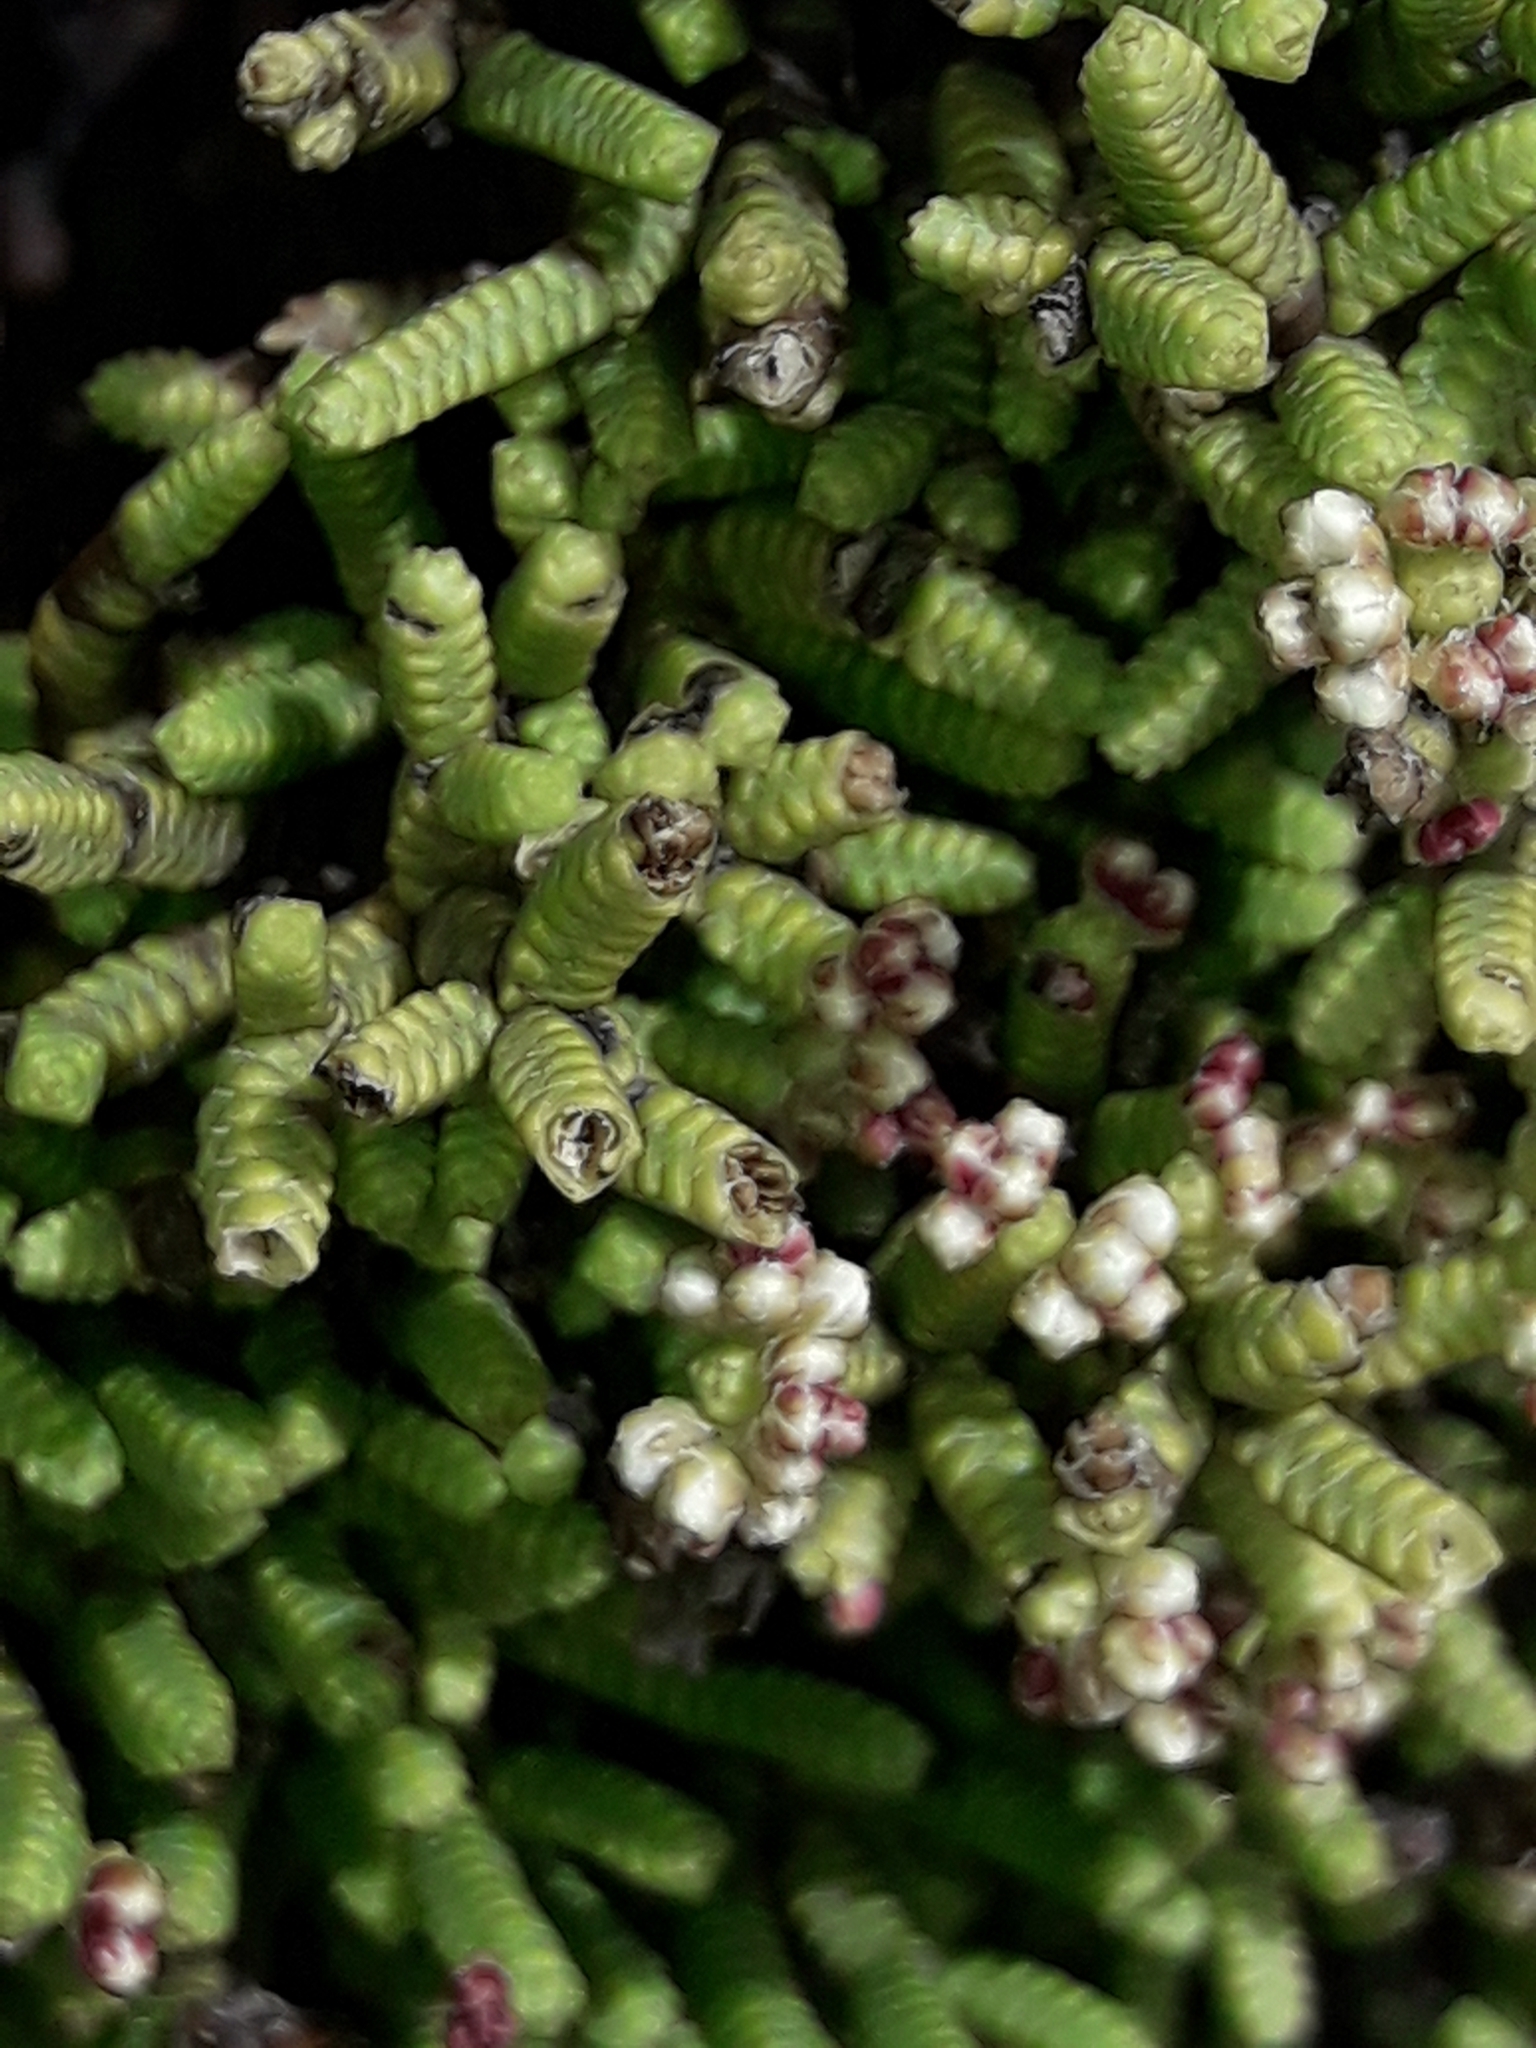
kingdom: Plantae
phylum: Tracheophyta
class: Magnoliopsida
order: Lamiales
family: Plantaginaceae
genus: Veronica
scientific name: Veronica quadrifaria
